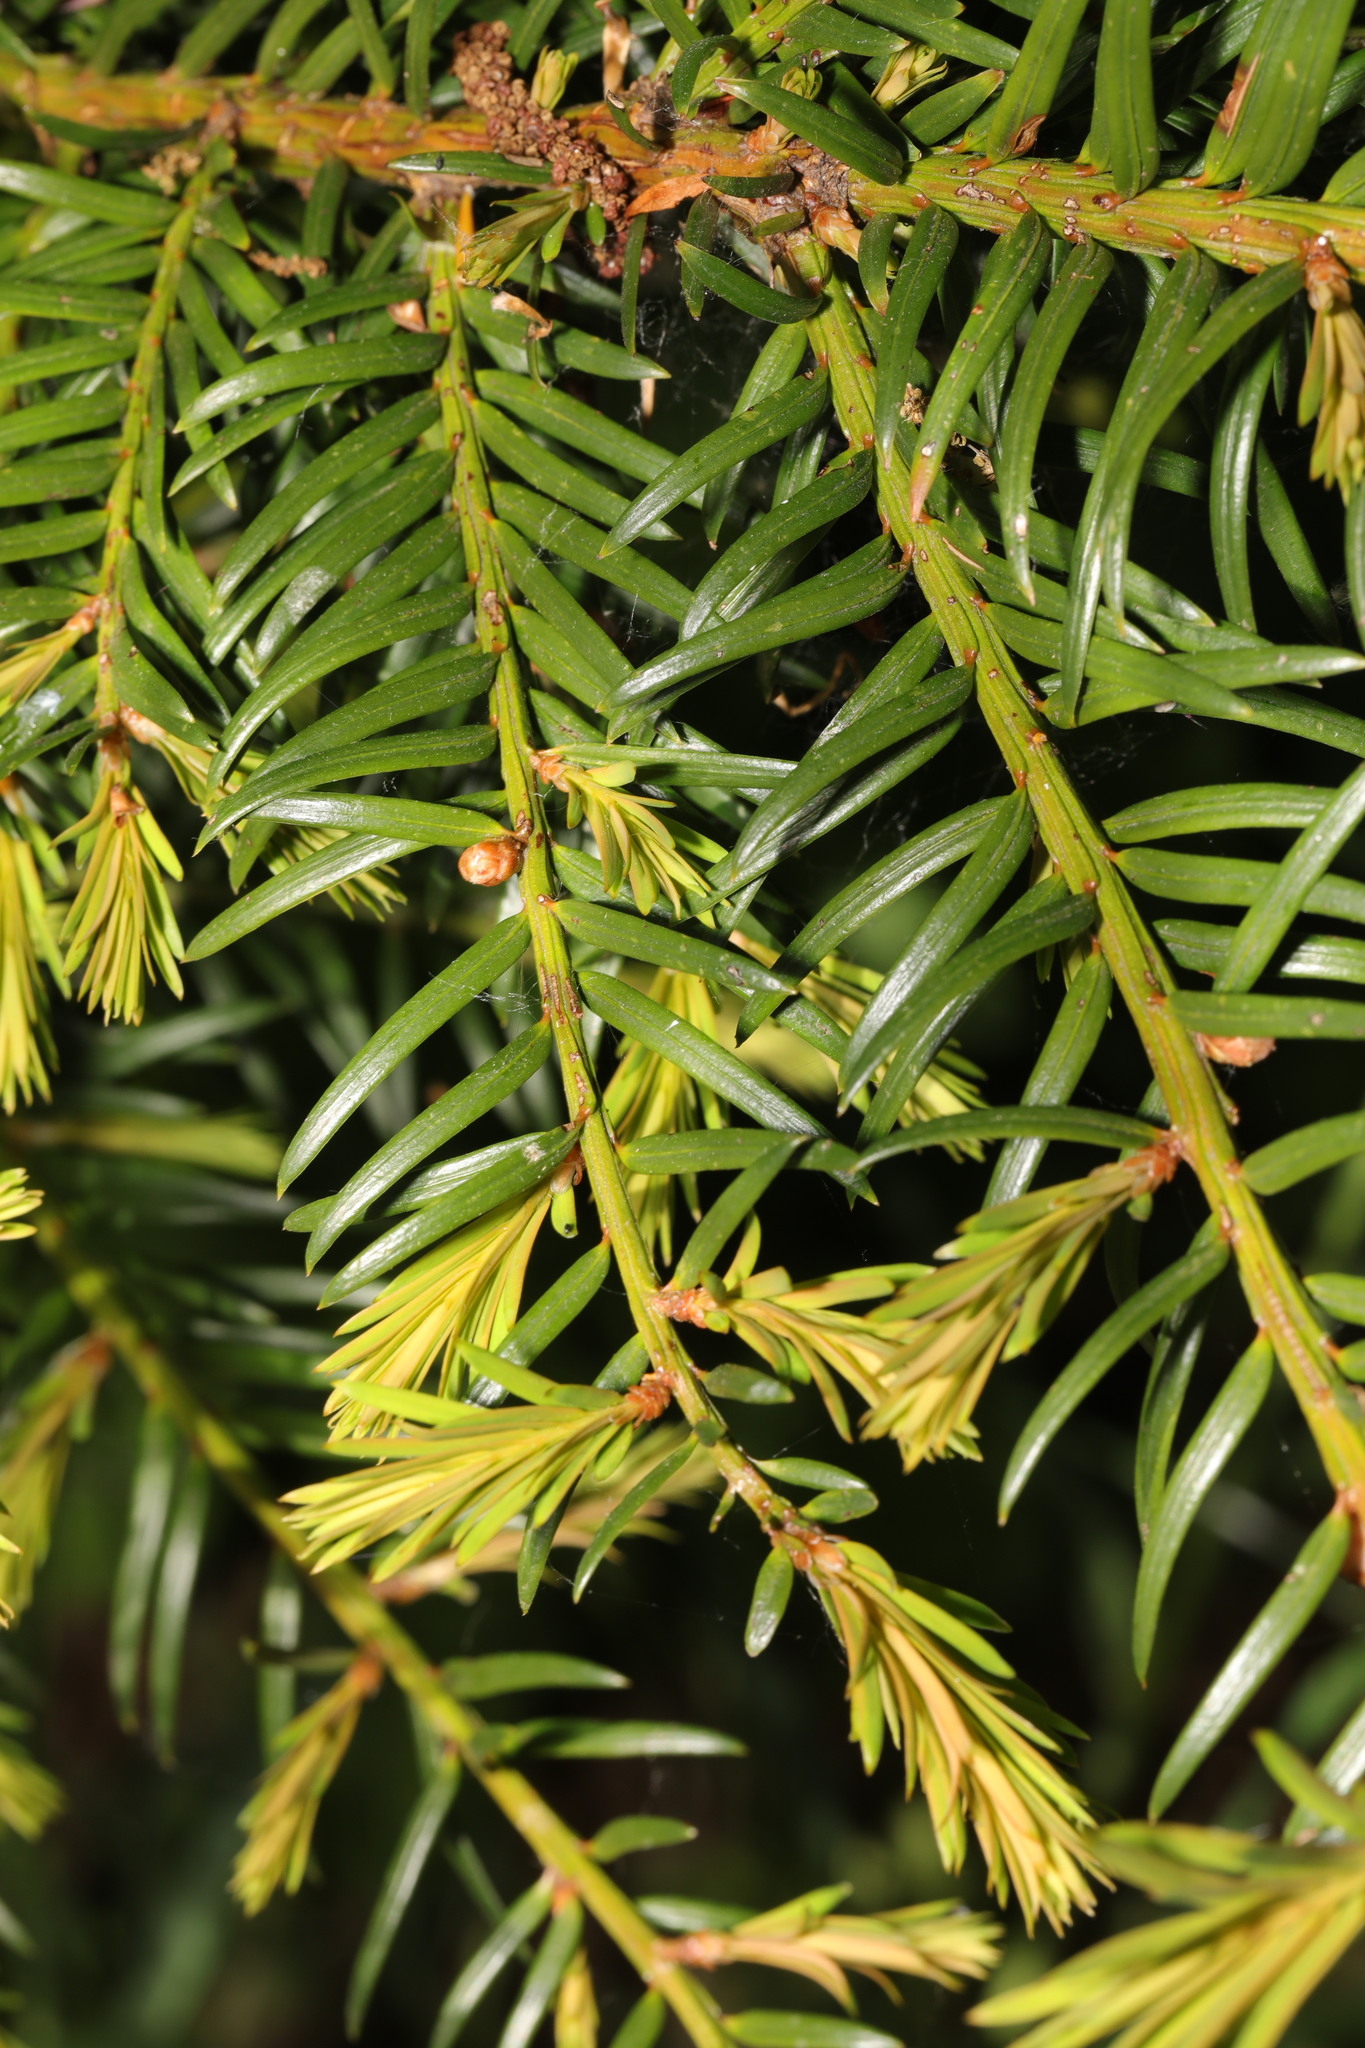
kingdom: Plantae
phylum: Tracheophyta
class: Pinopsida
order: Pinales
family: Taxaceae
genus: Taxus
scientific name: Taxus baccata
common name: Yew
